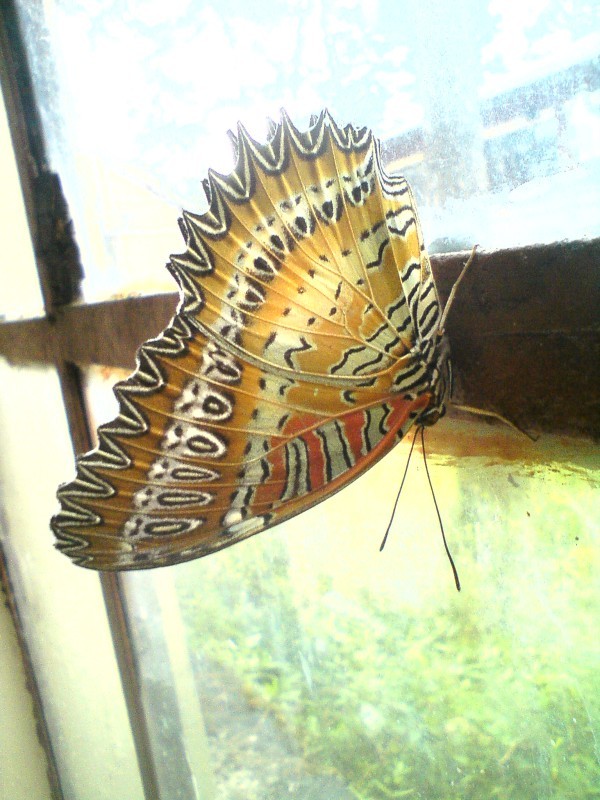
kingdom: Animalia
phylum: Arthropoda
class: Insecta
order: Lepidoptera
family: Nymphalidae
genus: Cethosia
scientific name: Cethosia biblis
